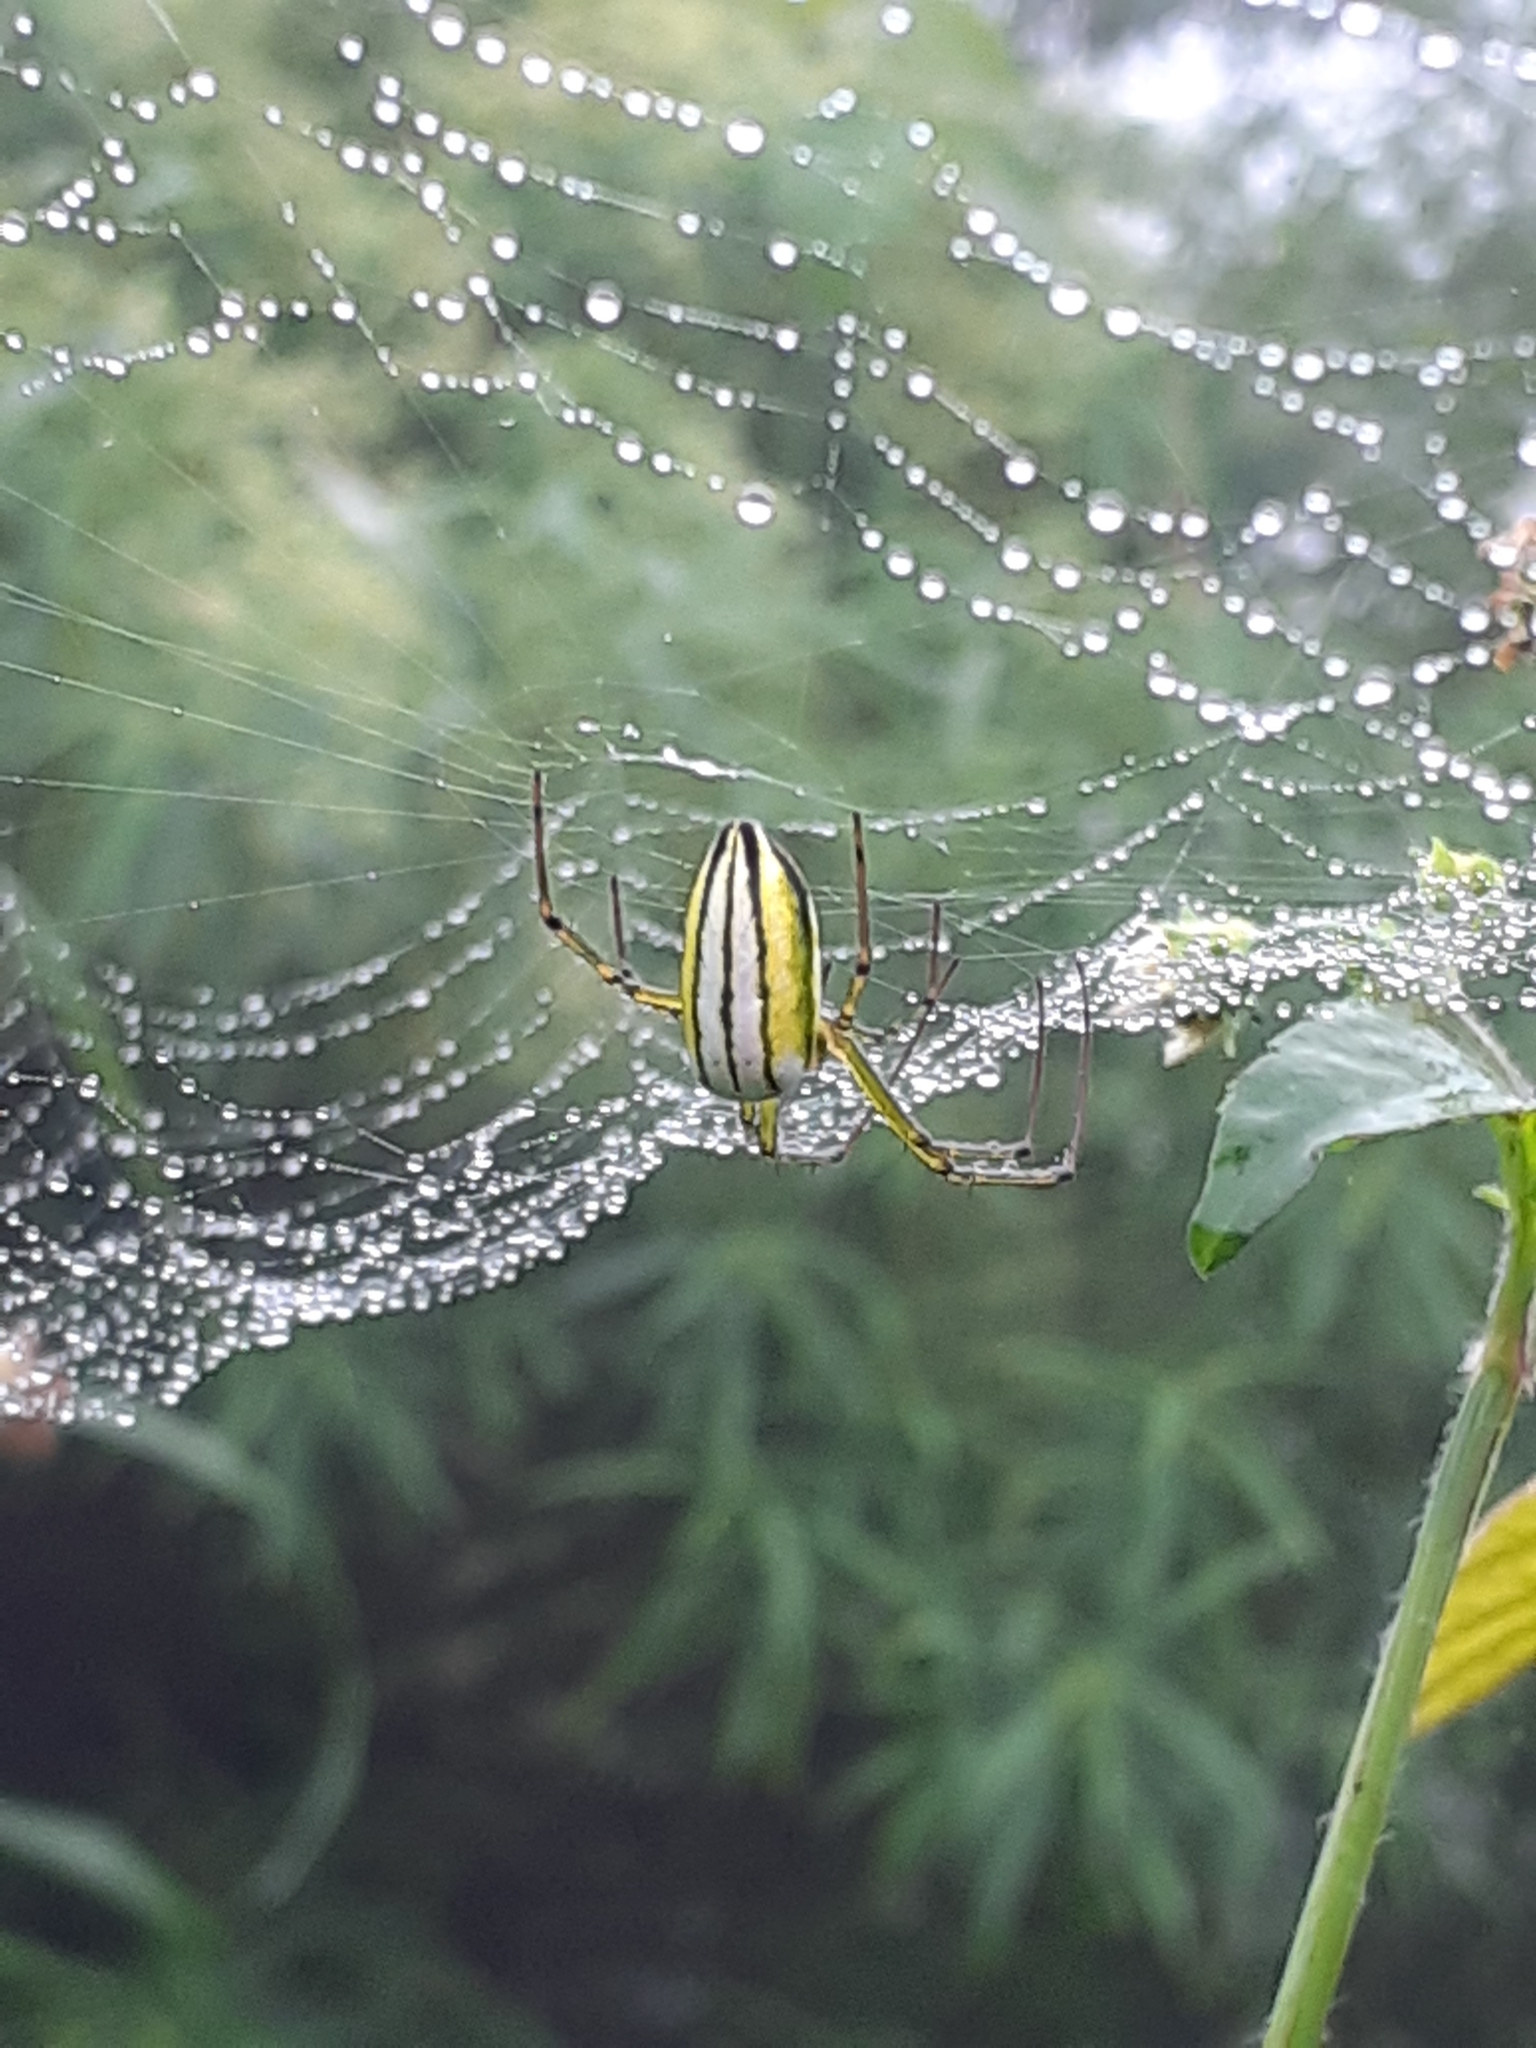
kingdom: Animalia
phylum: Arthropoda
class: Arachnida
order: Araneae
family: Tetragnathidae
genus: Leucauge
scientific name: Leucauge celebesiana
